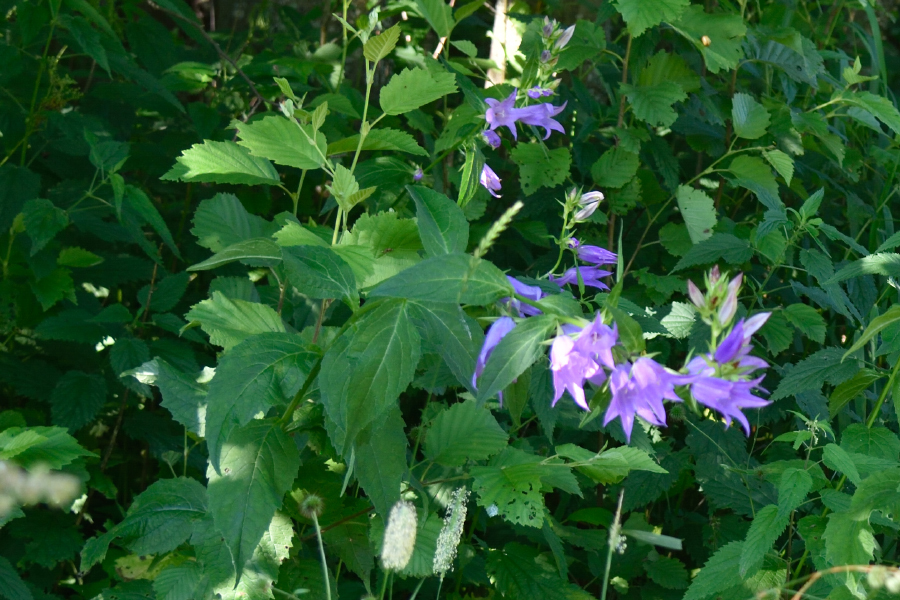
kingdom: Plantae
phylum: Tracheophyta
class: Magnoliopsida
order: Asterales
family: Campanulaceae
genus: Campanula
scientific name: Campanula latifolia
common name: Giant bellflower
